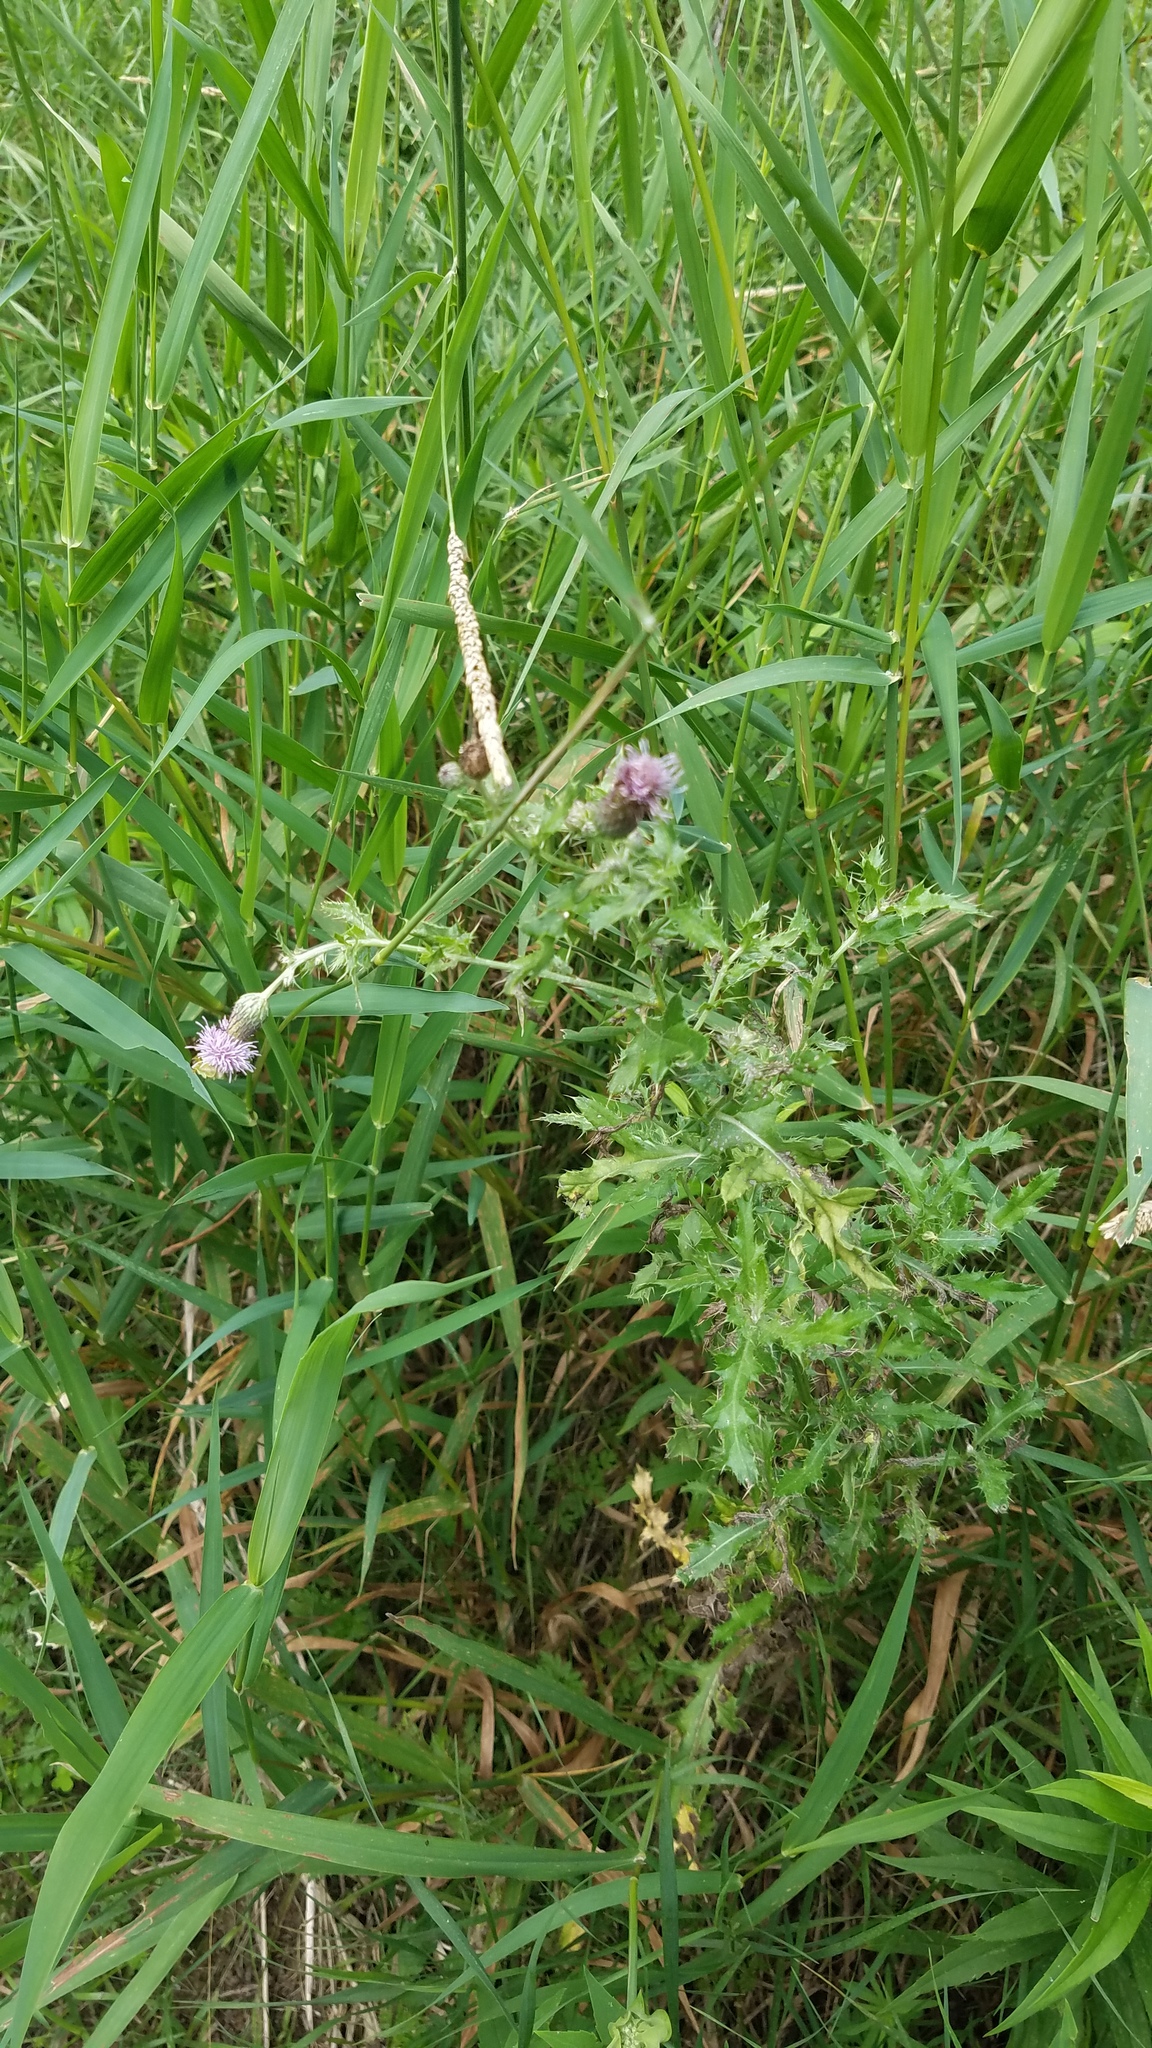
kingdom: Plantae
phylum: Tracheophyta
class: Magnoliopsida
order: Asterales
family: Asteraceae
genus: Cirsium
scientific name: Cirsium arvense
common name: Creeping thistle
